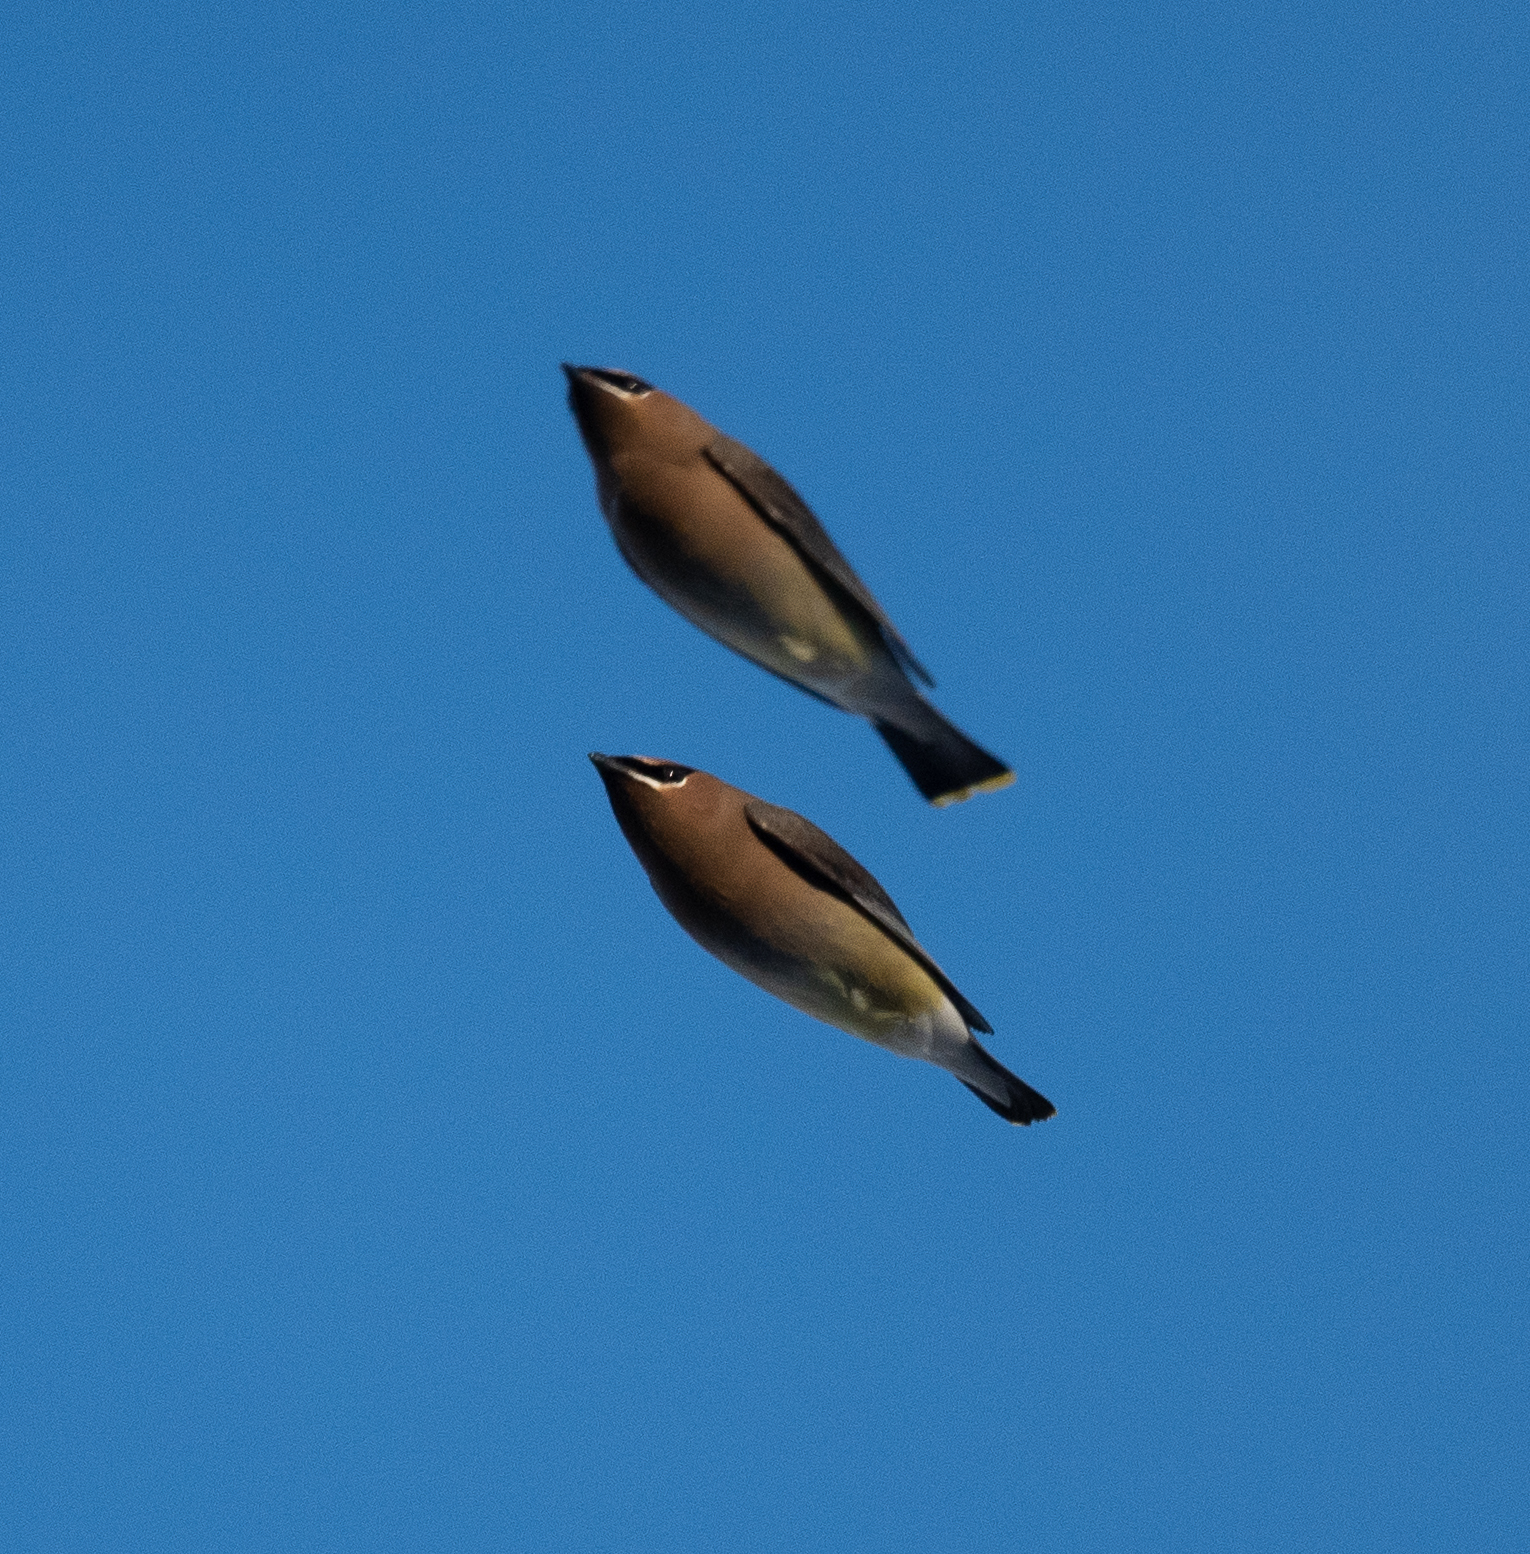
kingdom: Animalia
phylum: Chordata
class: Aves
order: Passeriformes
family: Bombycillidae
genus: Bombycilla
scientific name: Bombycilla cedrorum
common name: Cedar waxwing
